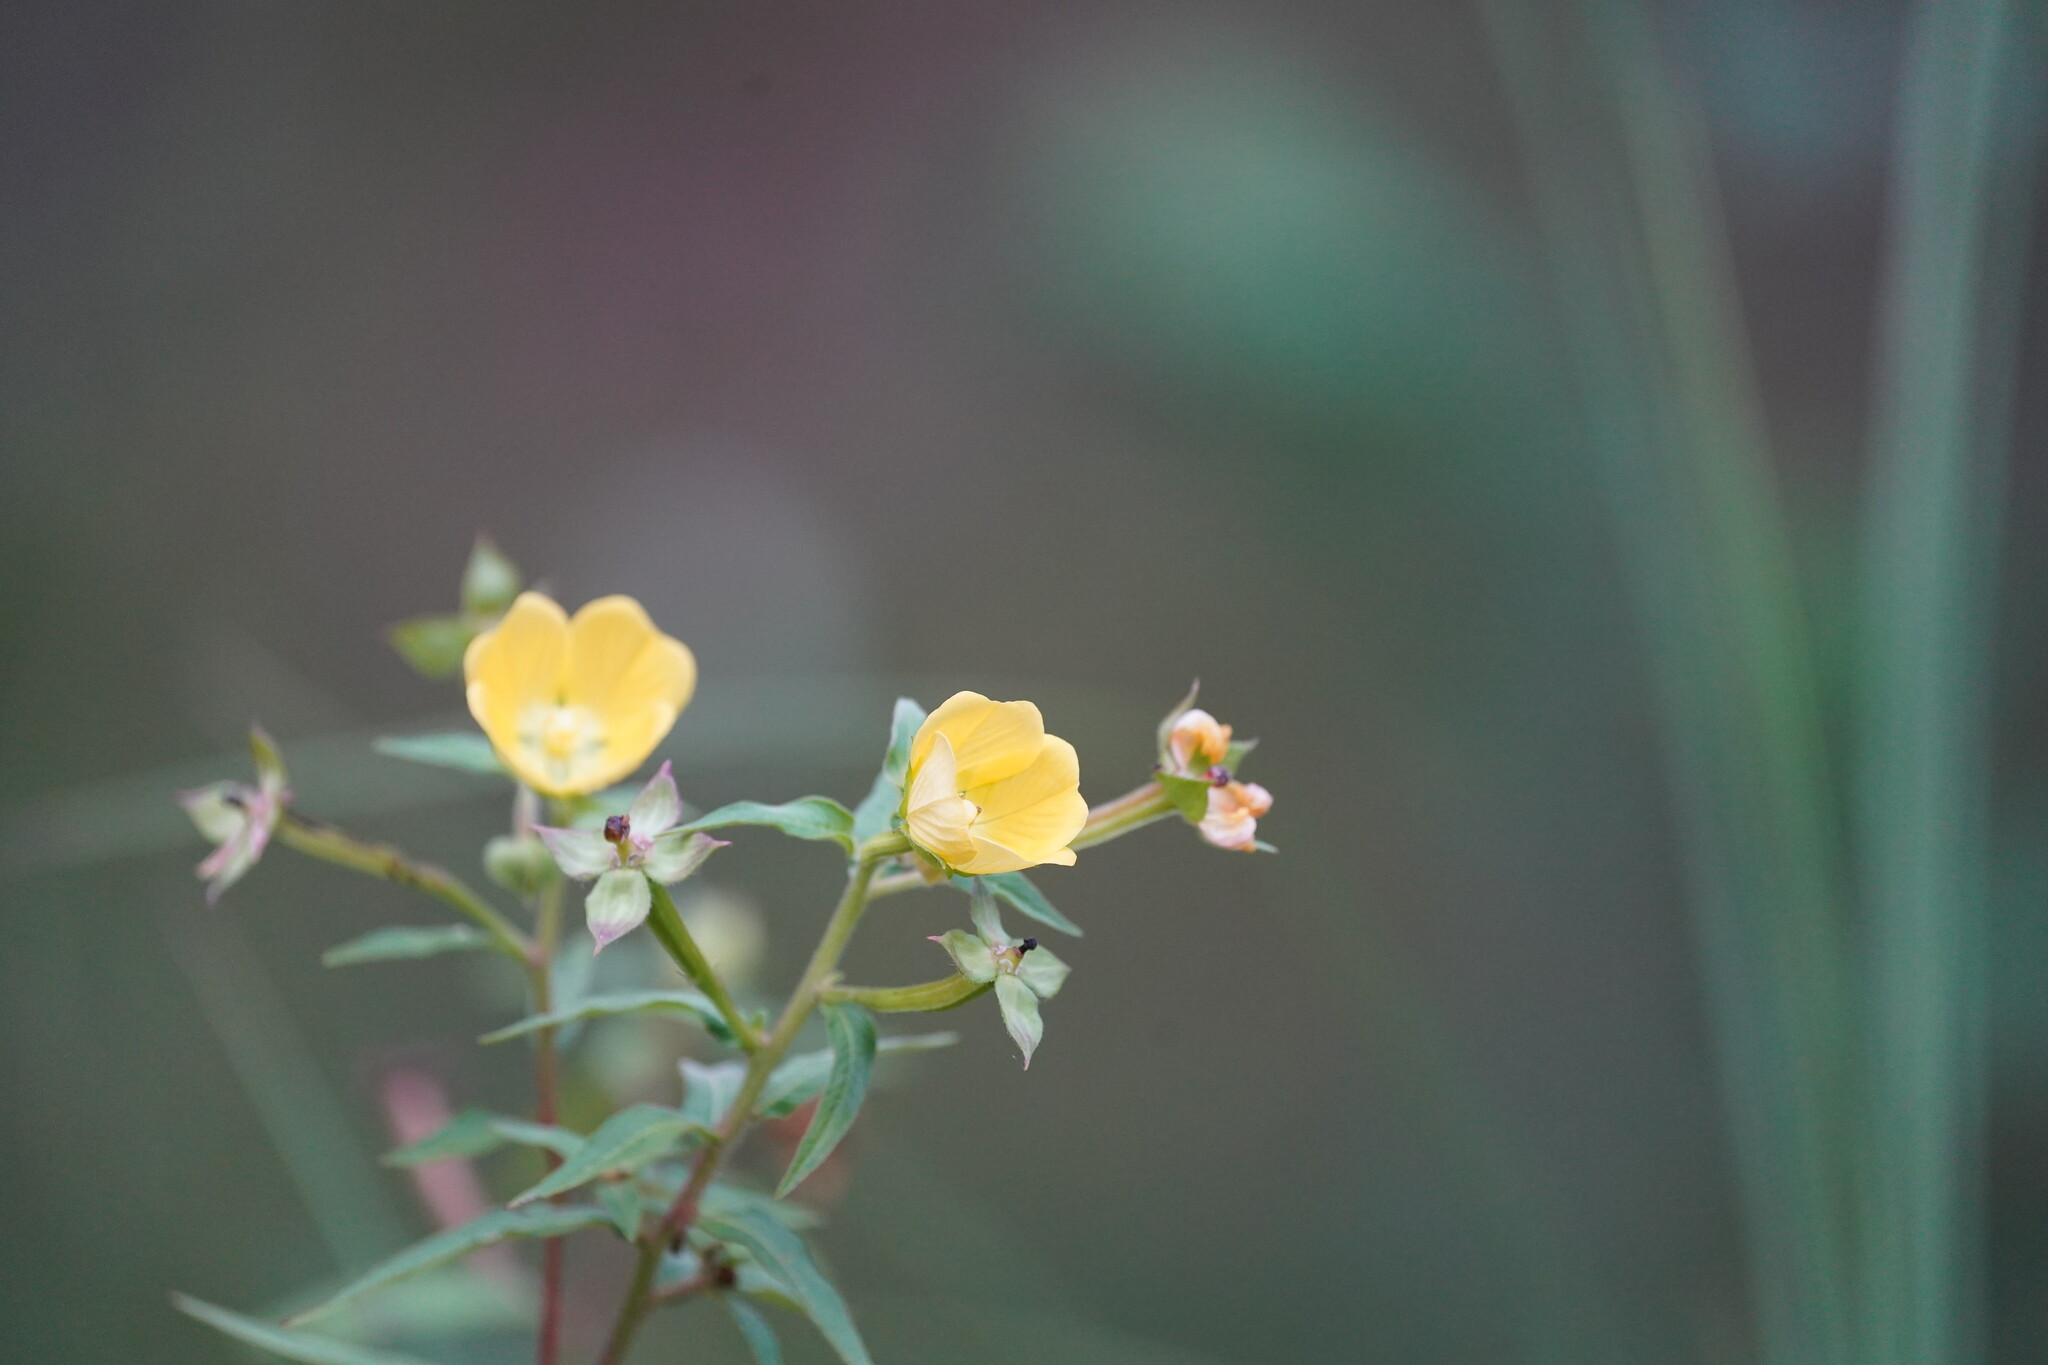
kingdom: Plantae
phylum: Tracheophyta
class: Magnoliopsida
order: Myrtales
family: Onagraceae
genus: Ludwigia
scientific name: Ludwigia octovalvis
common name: Water-primrose
